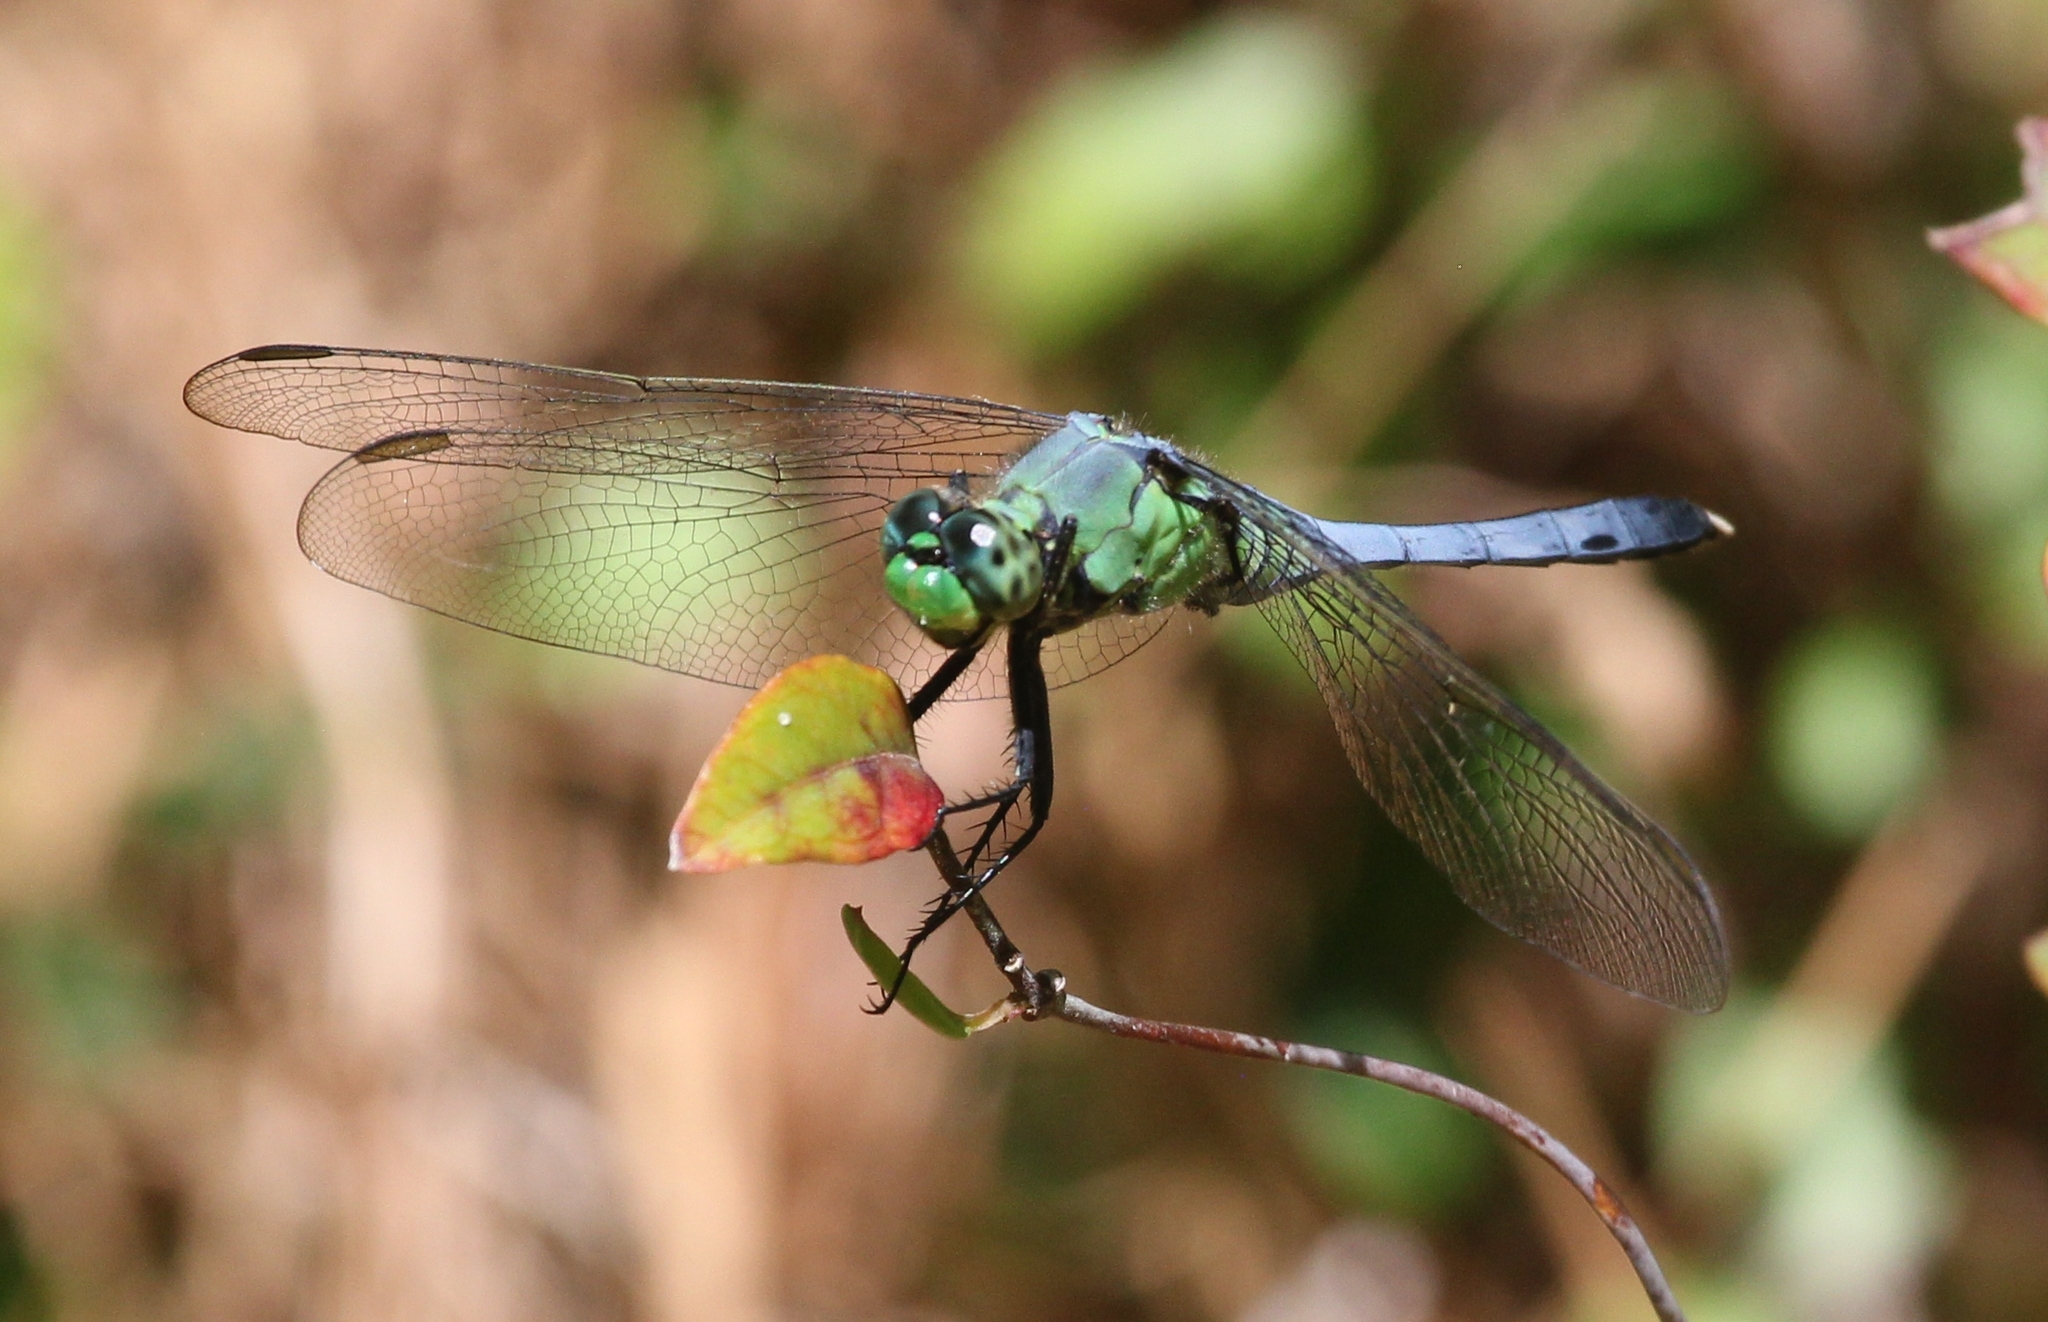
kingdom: Animalia
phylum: Arthropoda
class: Insecta
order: Odonata
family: Libellulidae
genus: Erythemis
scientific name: Erythemis simplicicollis
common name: Eastern pondhawk
